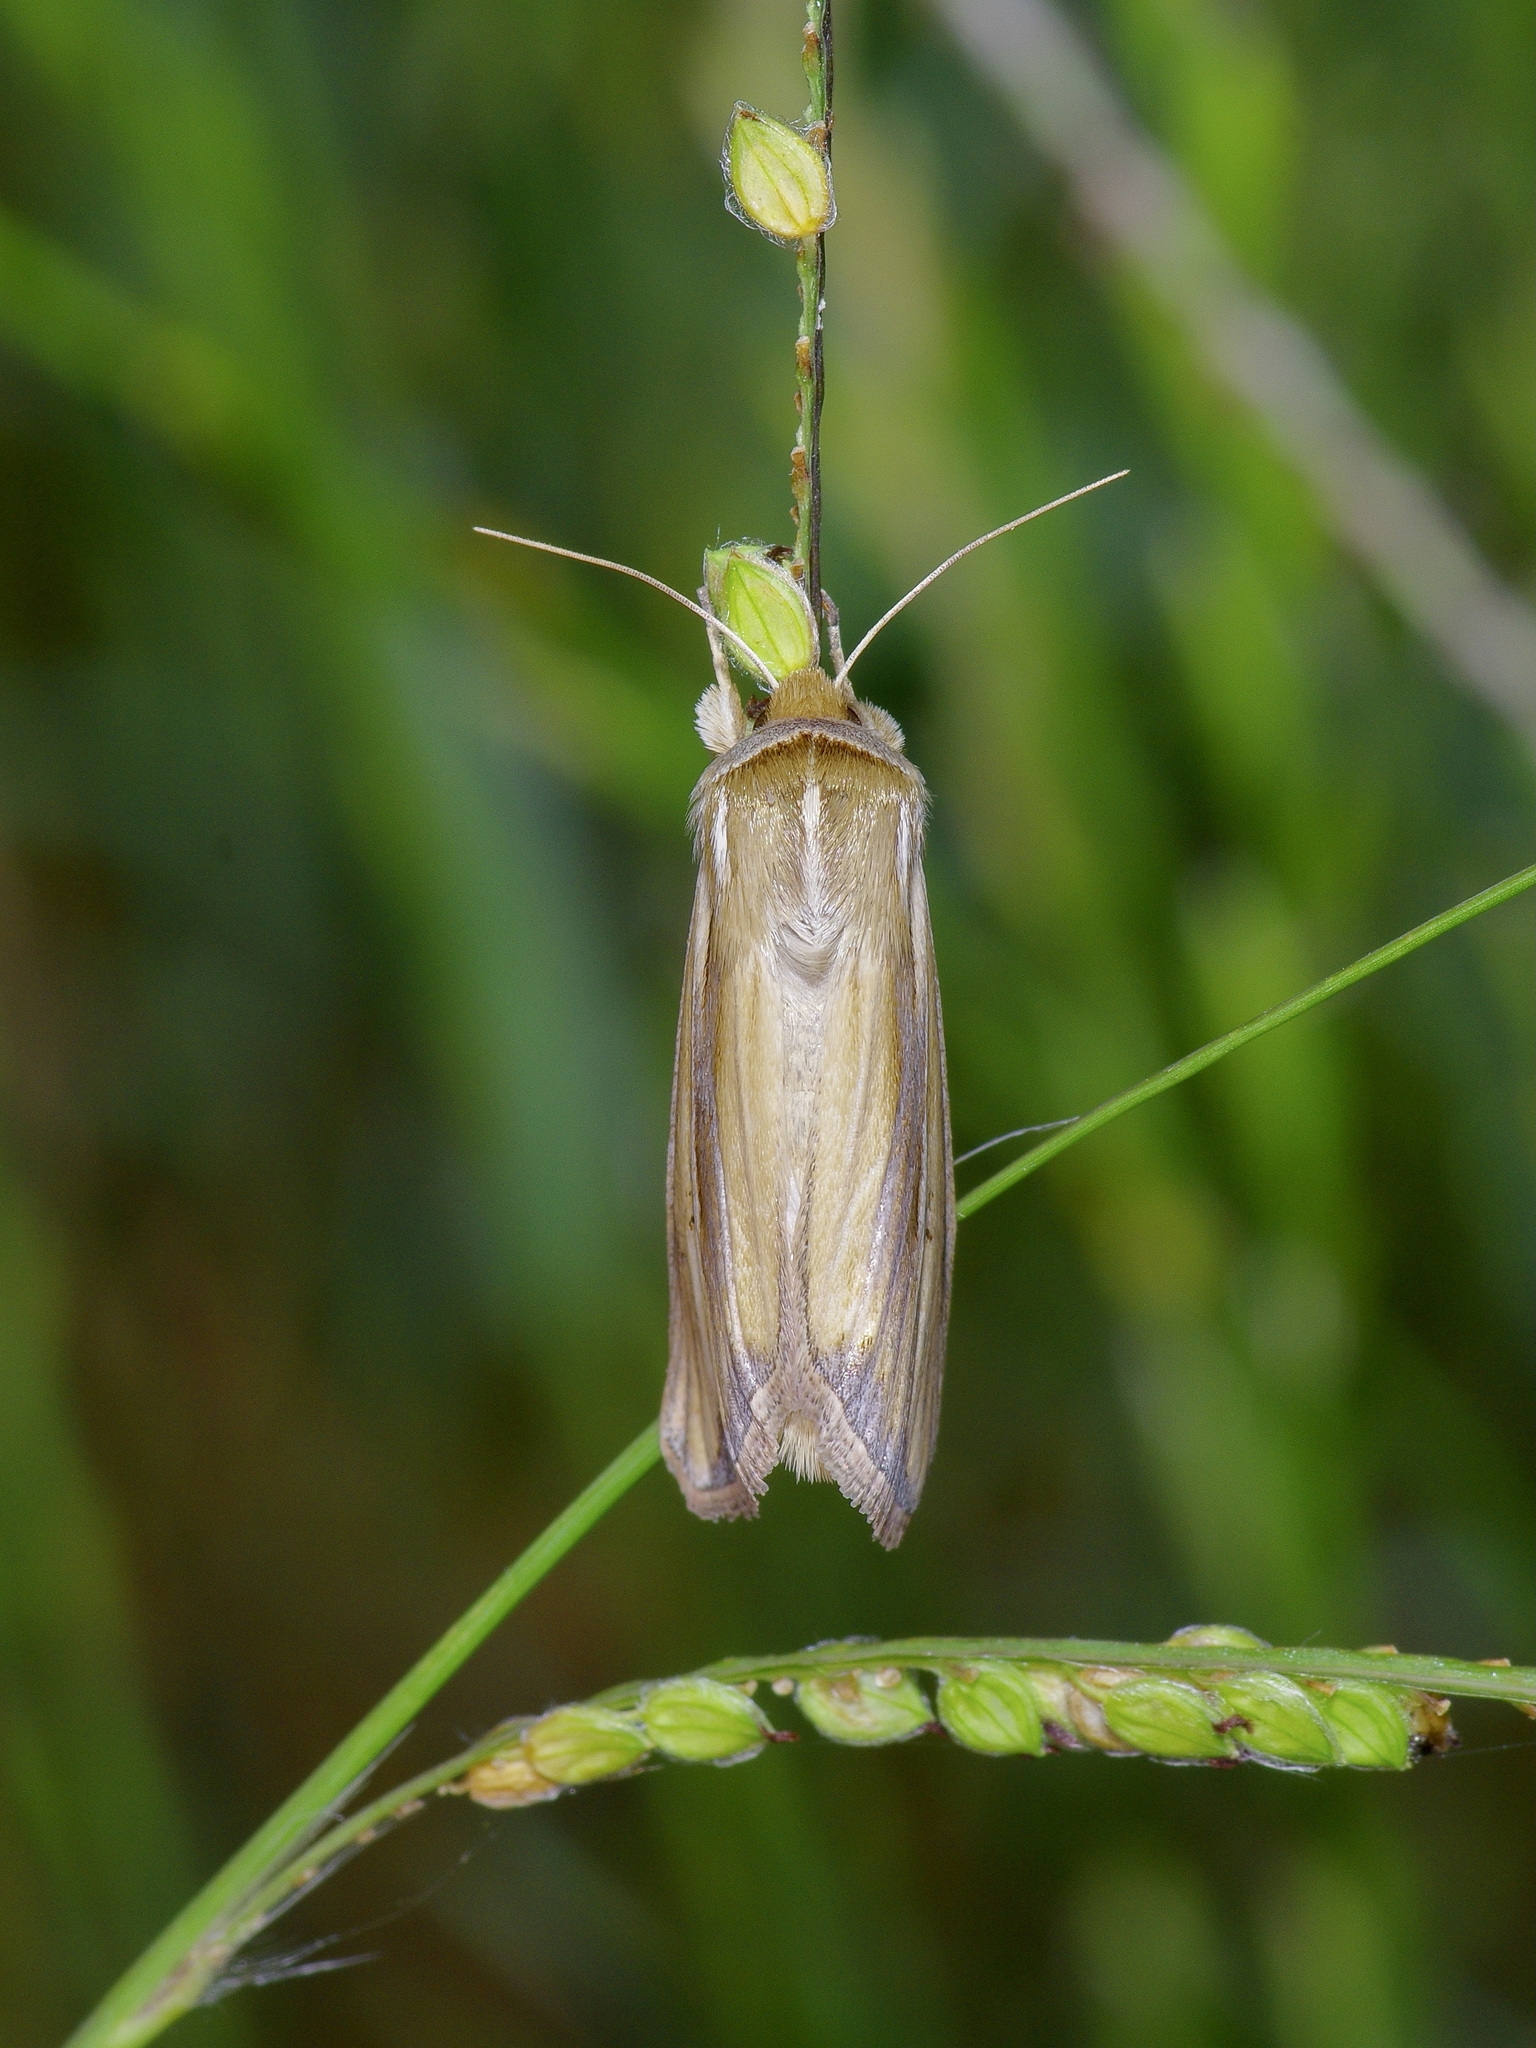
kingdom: Animalia
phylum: Arthropoda
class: Insecta
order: Lepidoptera
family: Noctuidae
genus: Dargida
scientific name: Dargida diffusa
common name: Wheat head armyworm
